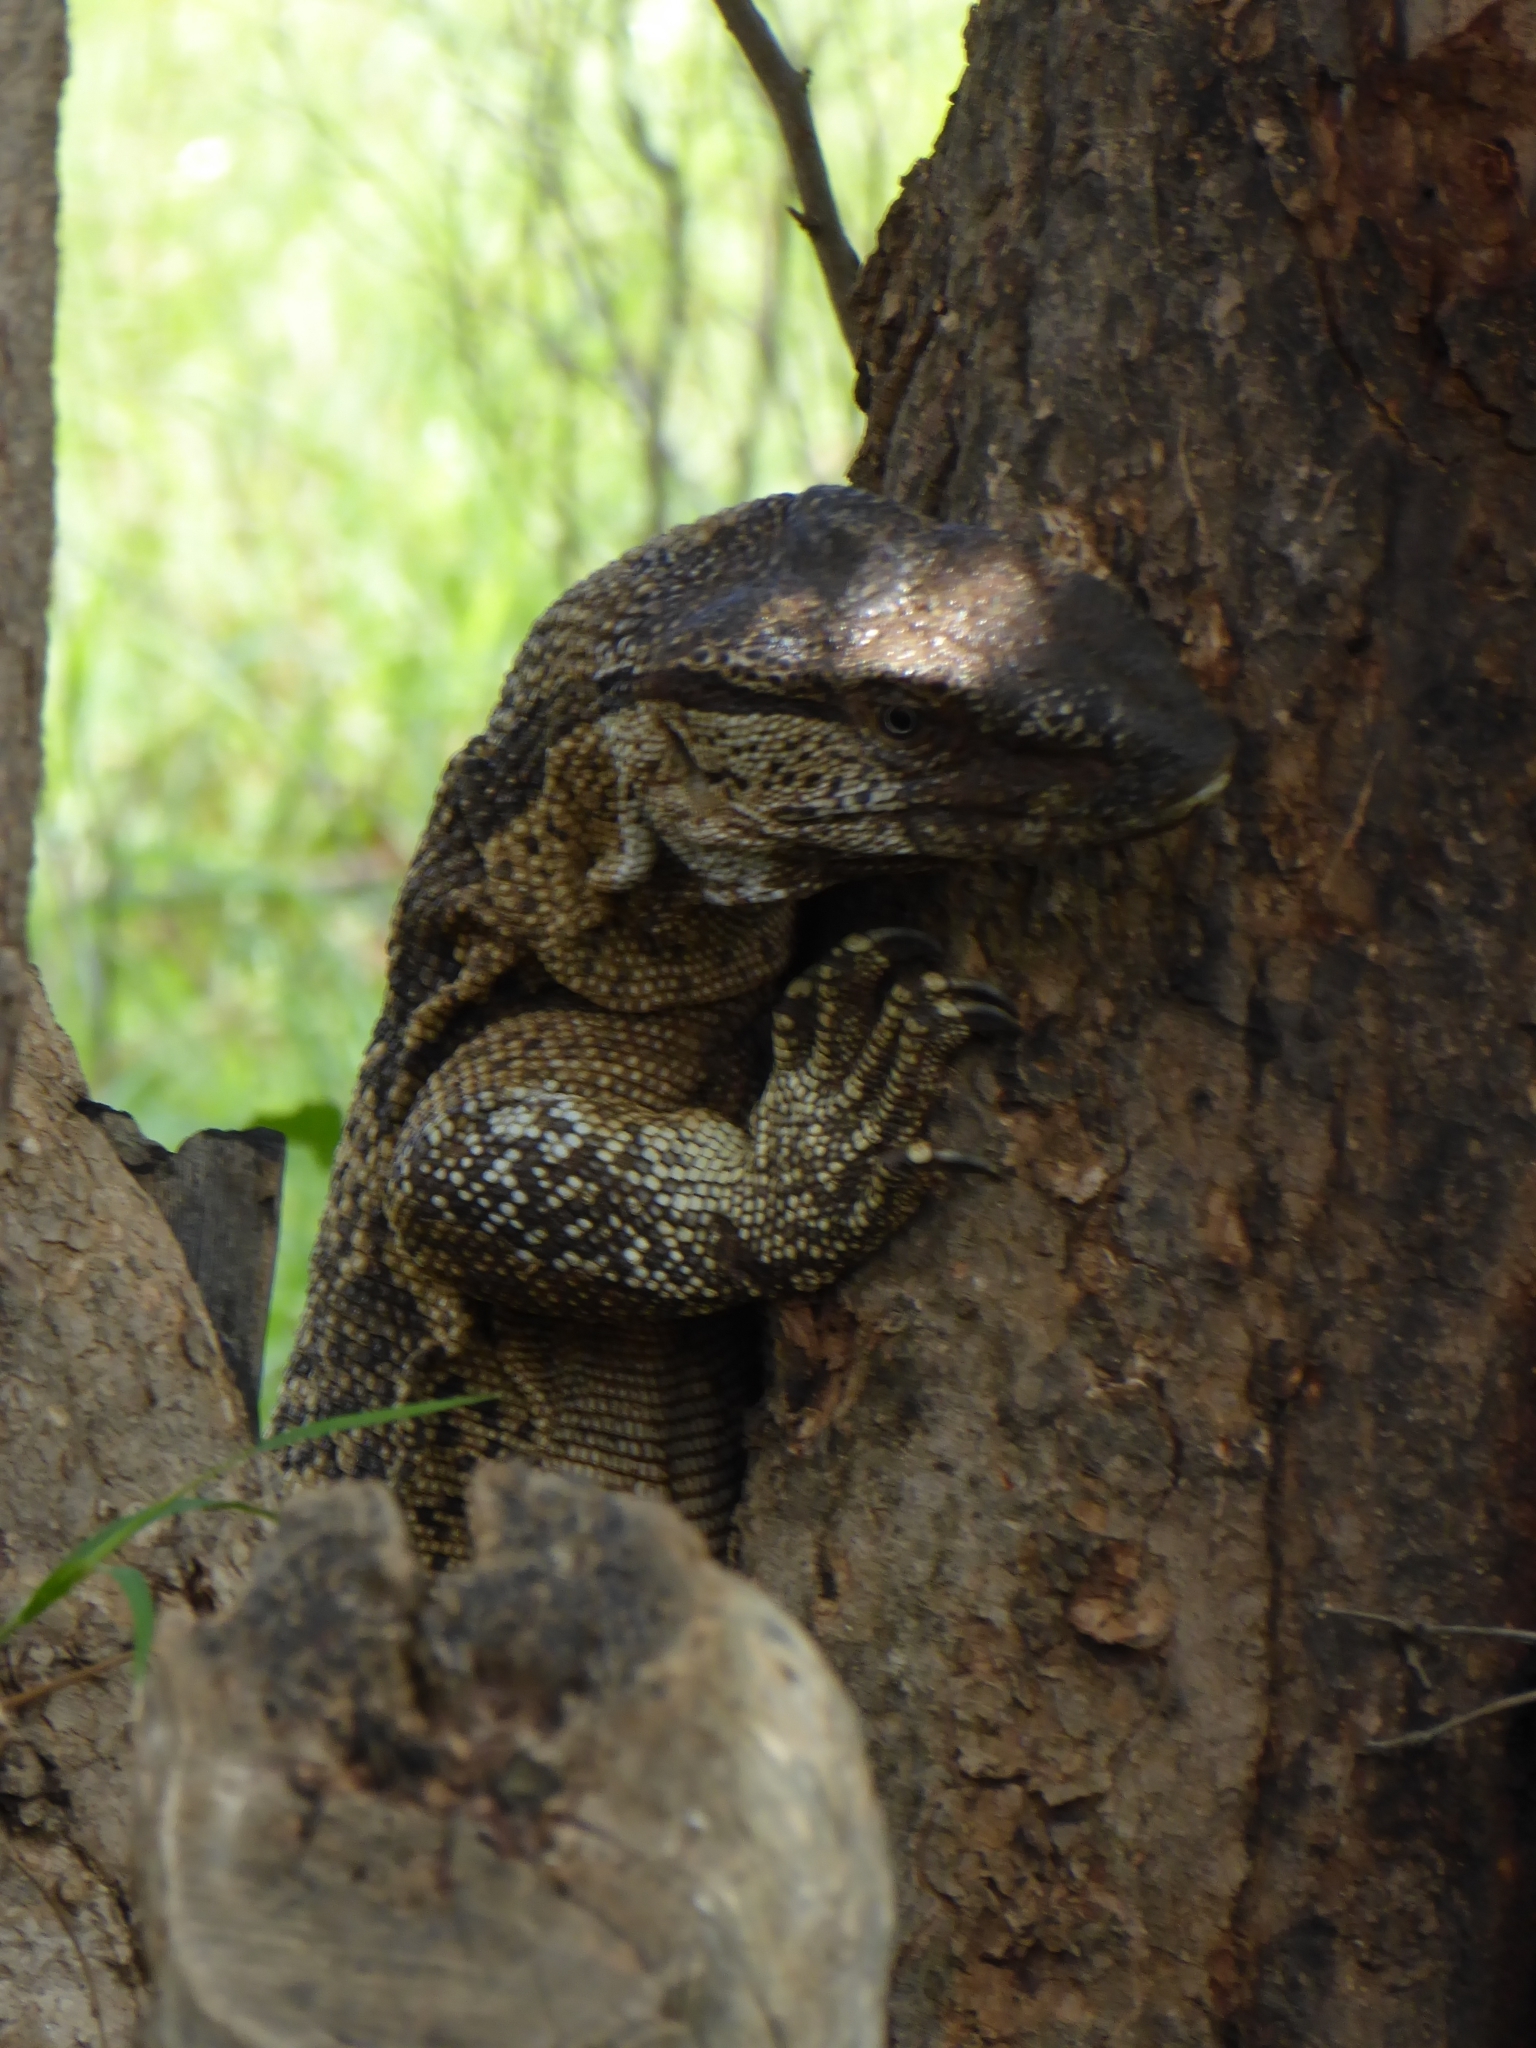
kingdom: Animalia
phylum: Chordata
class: Squamata
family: Varanidae
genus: Varanus
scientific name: Varanus albigularis
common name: White-throated monitor
